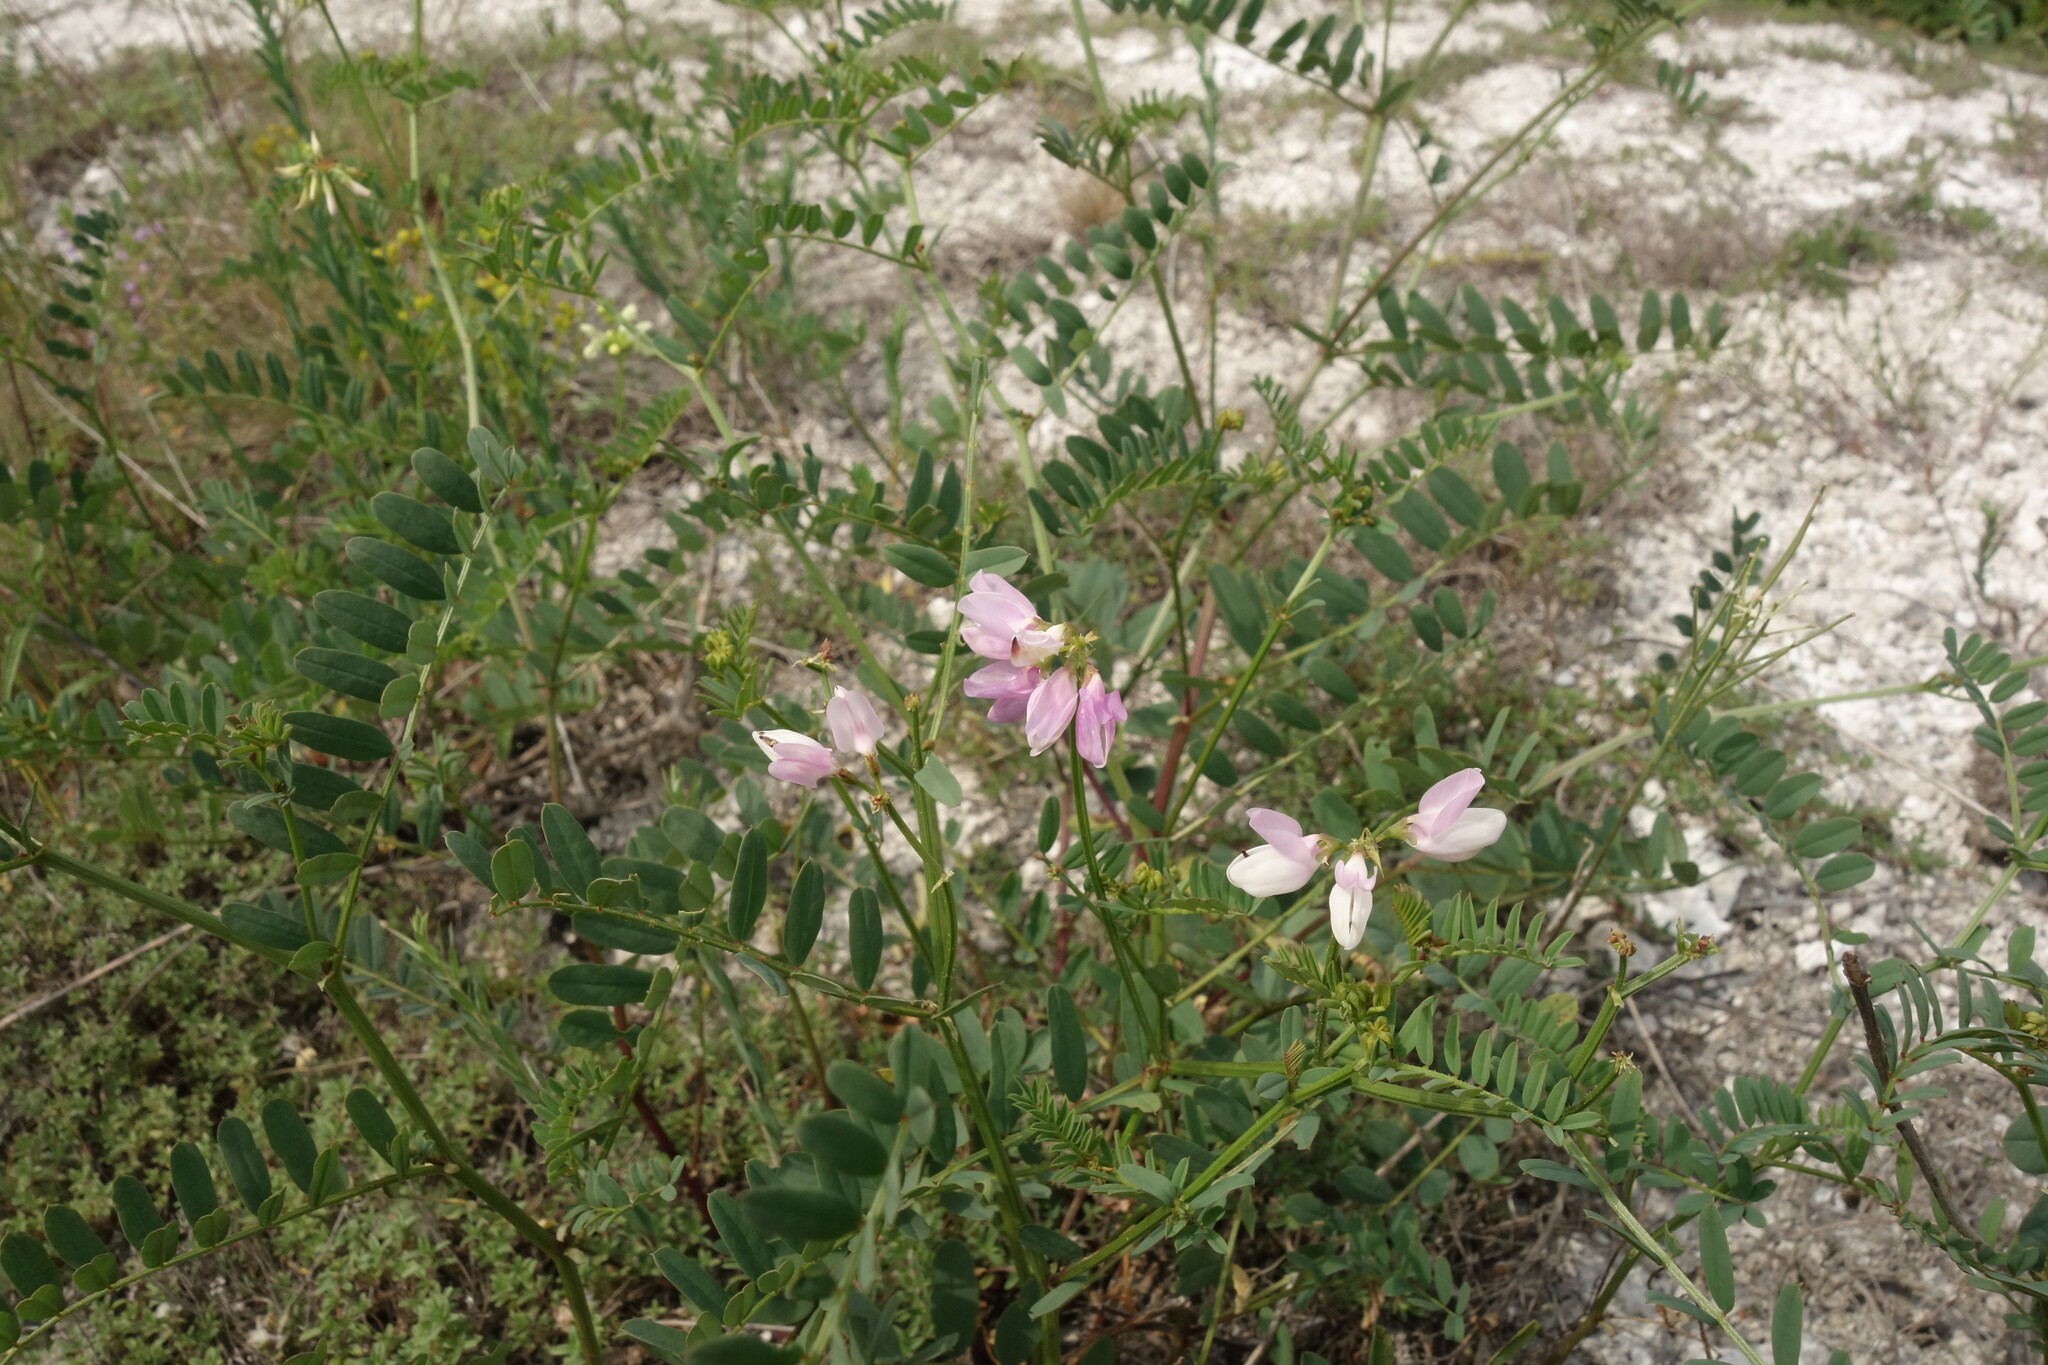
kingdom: Plantae
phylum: Tracheophyta
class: Magnoliopsida
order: Fabales
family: Fabaceae
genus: Coronilla
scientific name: Coronilla varia
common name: Crownvetch
